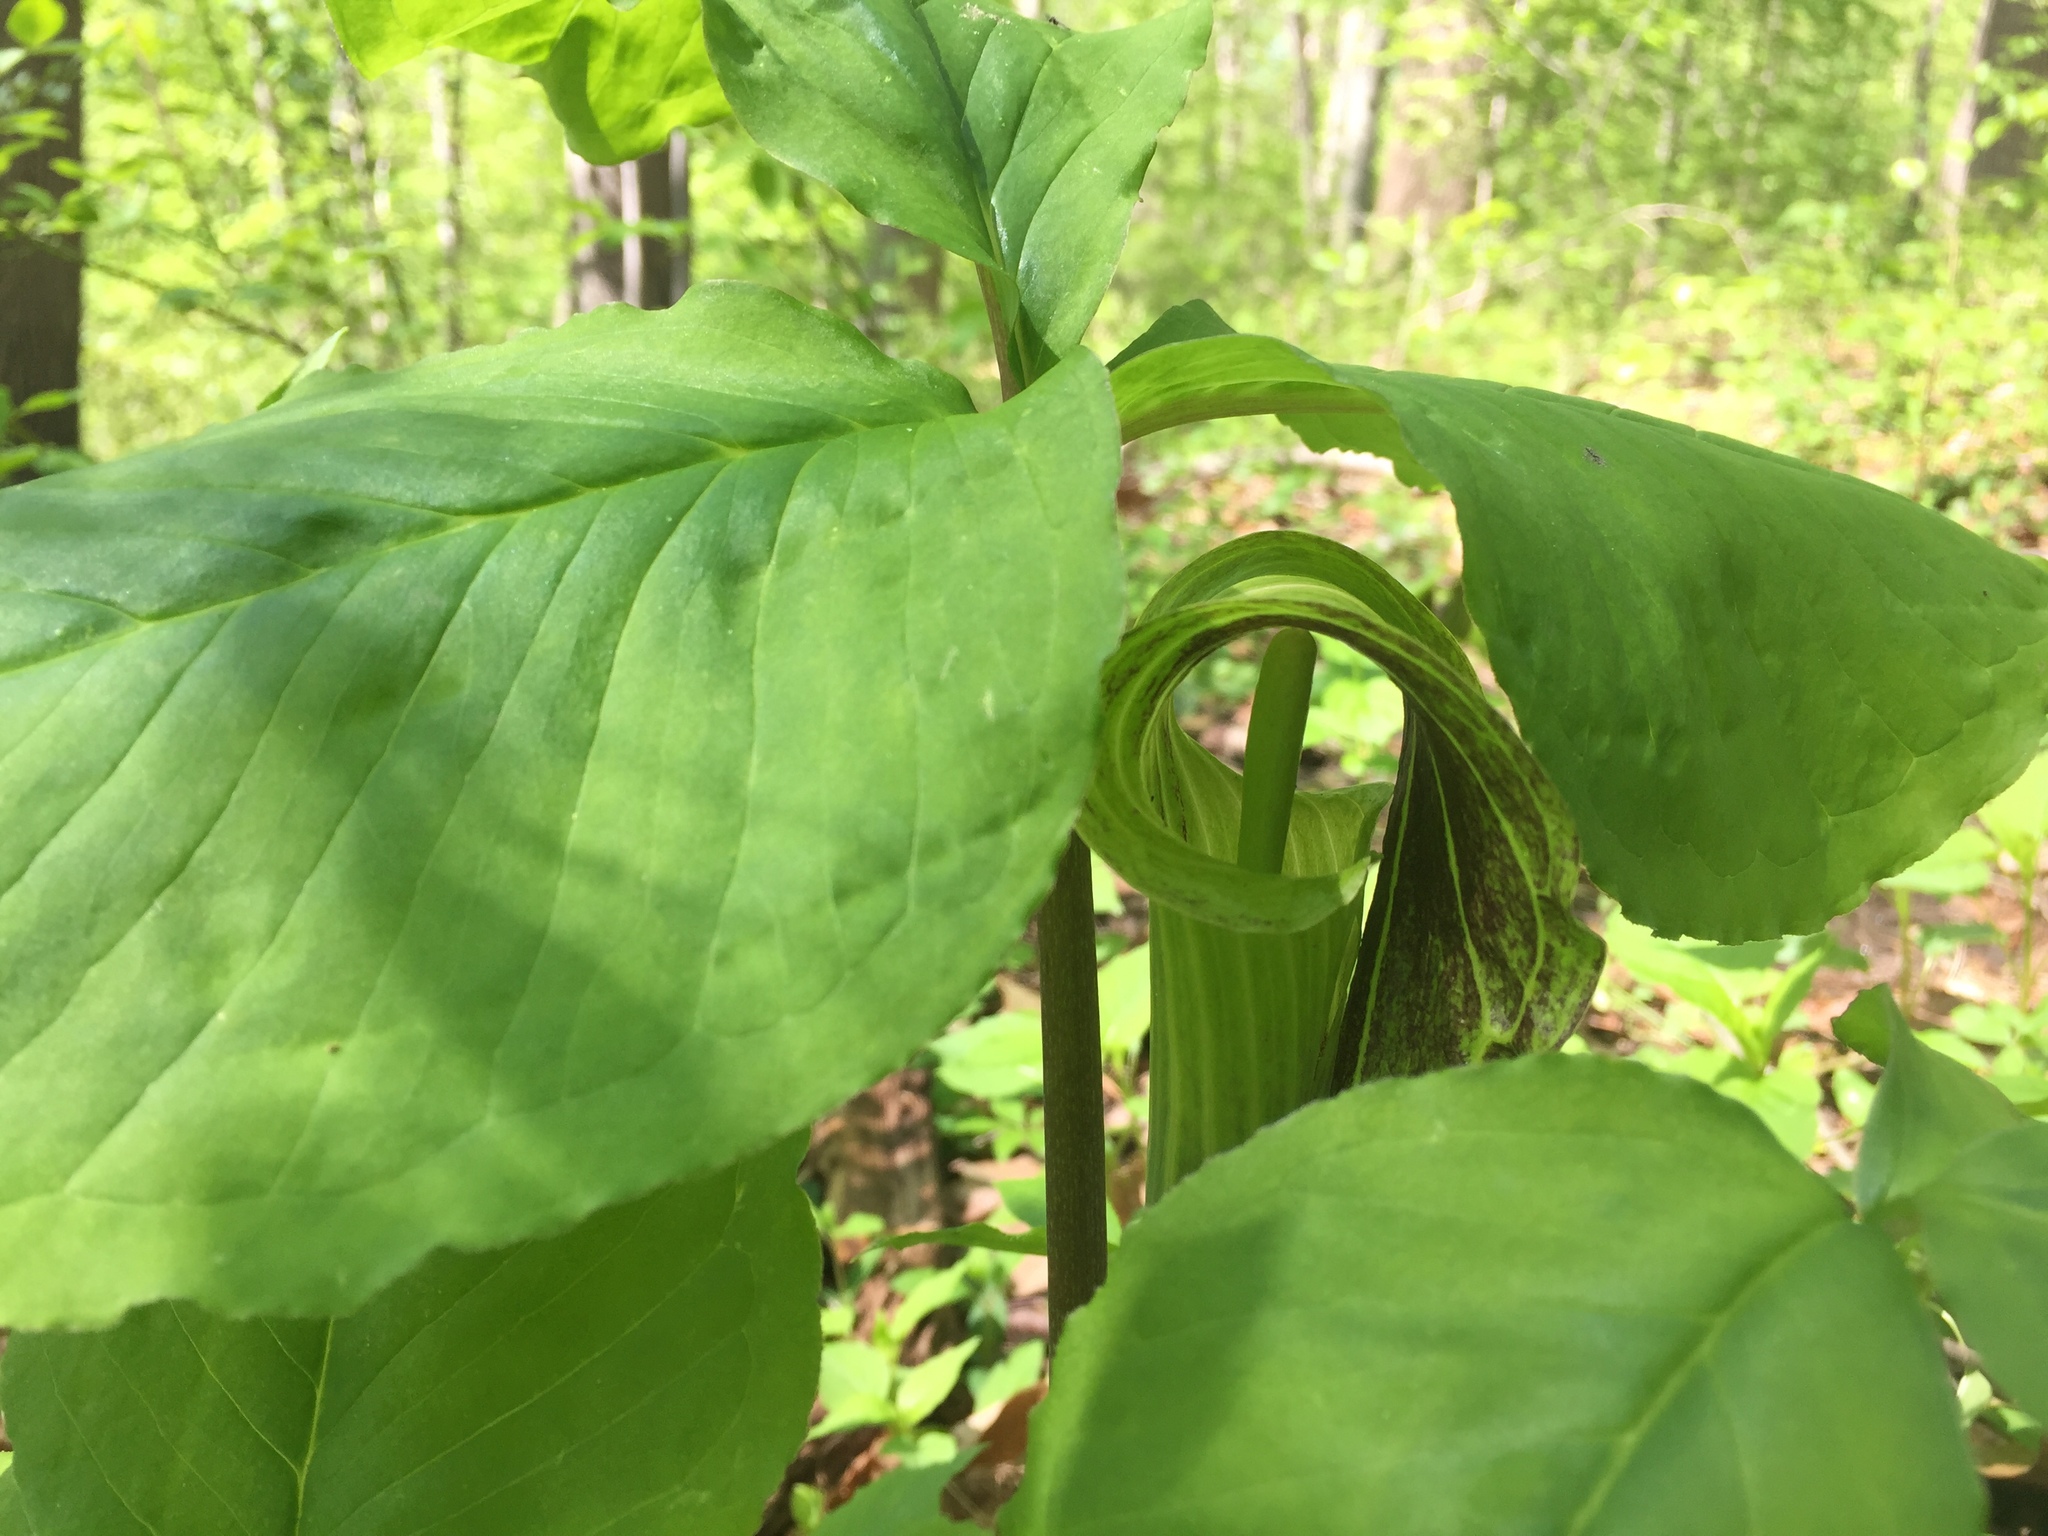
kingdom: Plantae
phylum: Tracheophyta
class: Liliopsida
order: Alismatales
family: Araceae
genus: Arisaema
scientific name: Arisaema triphyllum
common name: Jack-in-the-pulpit
